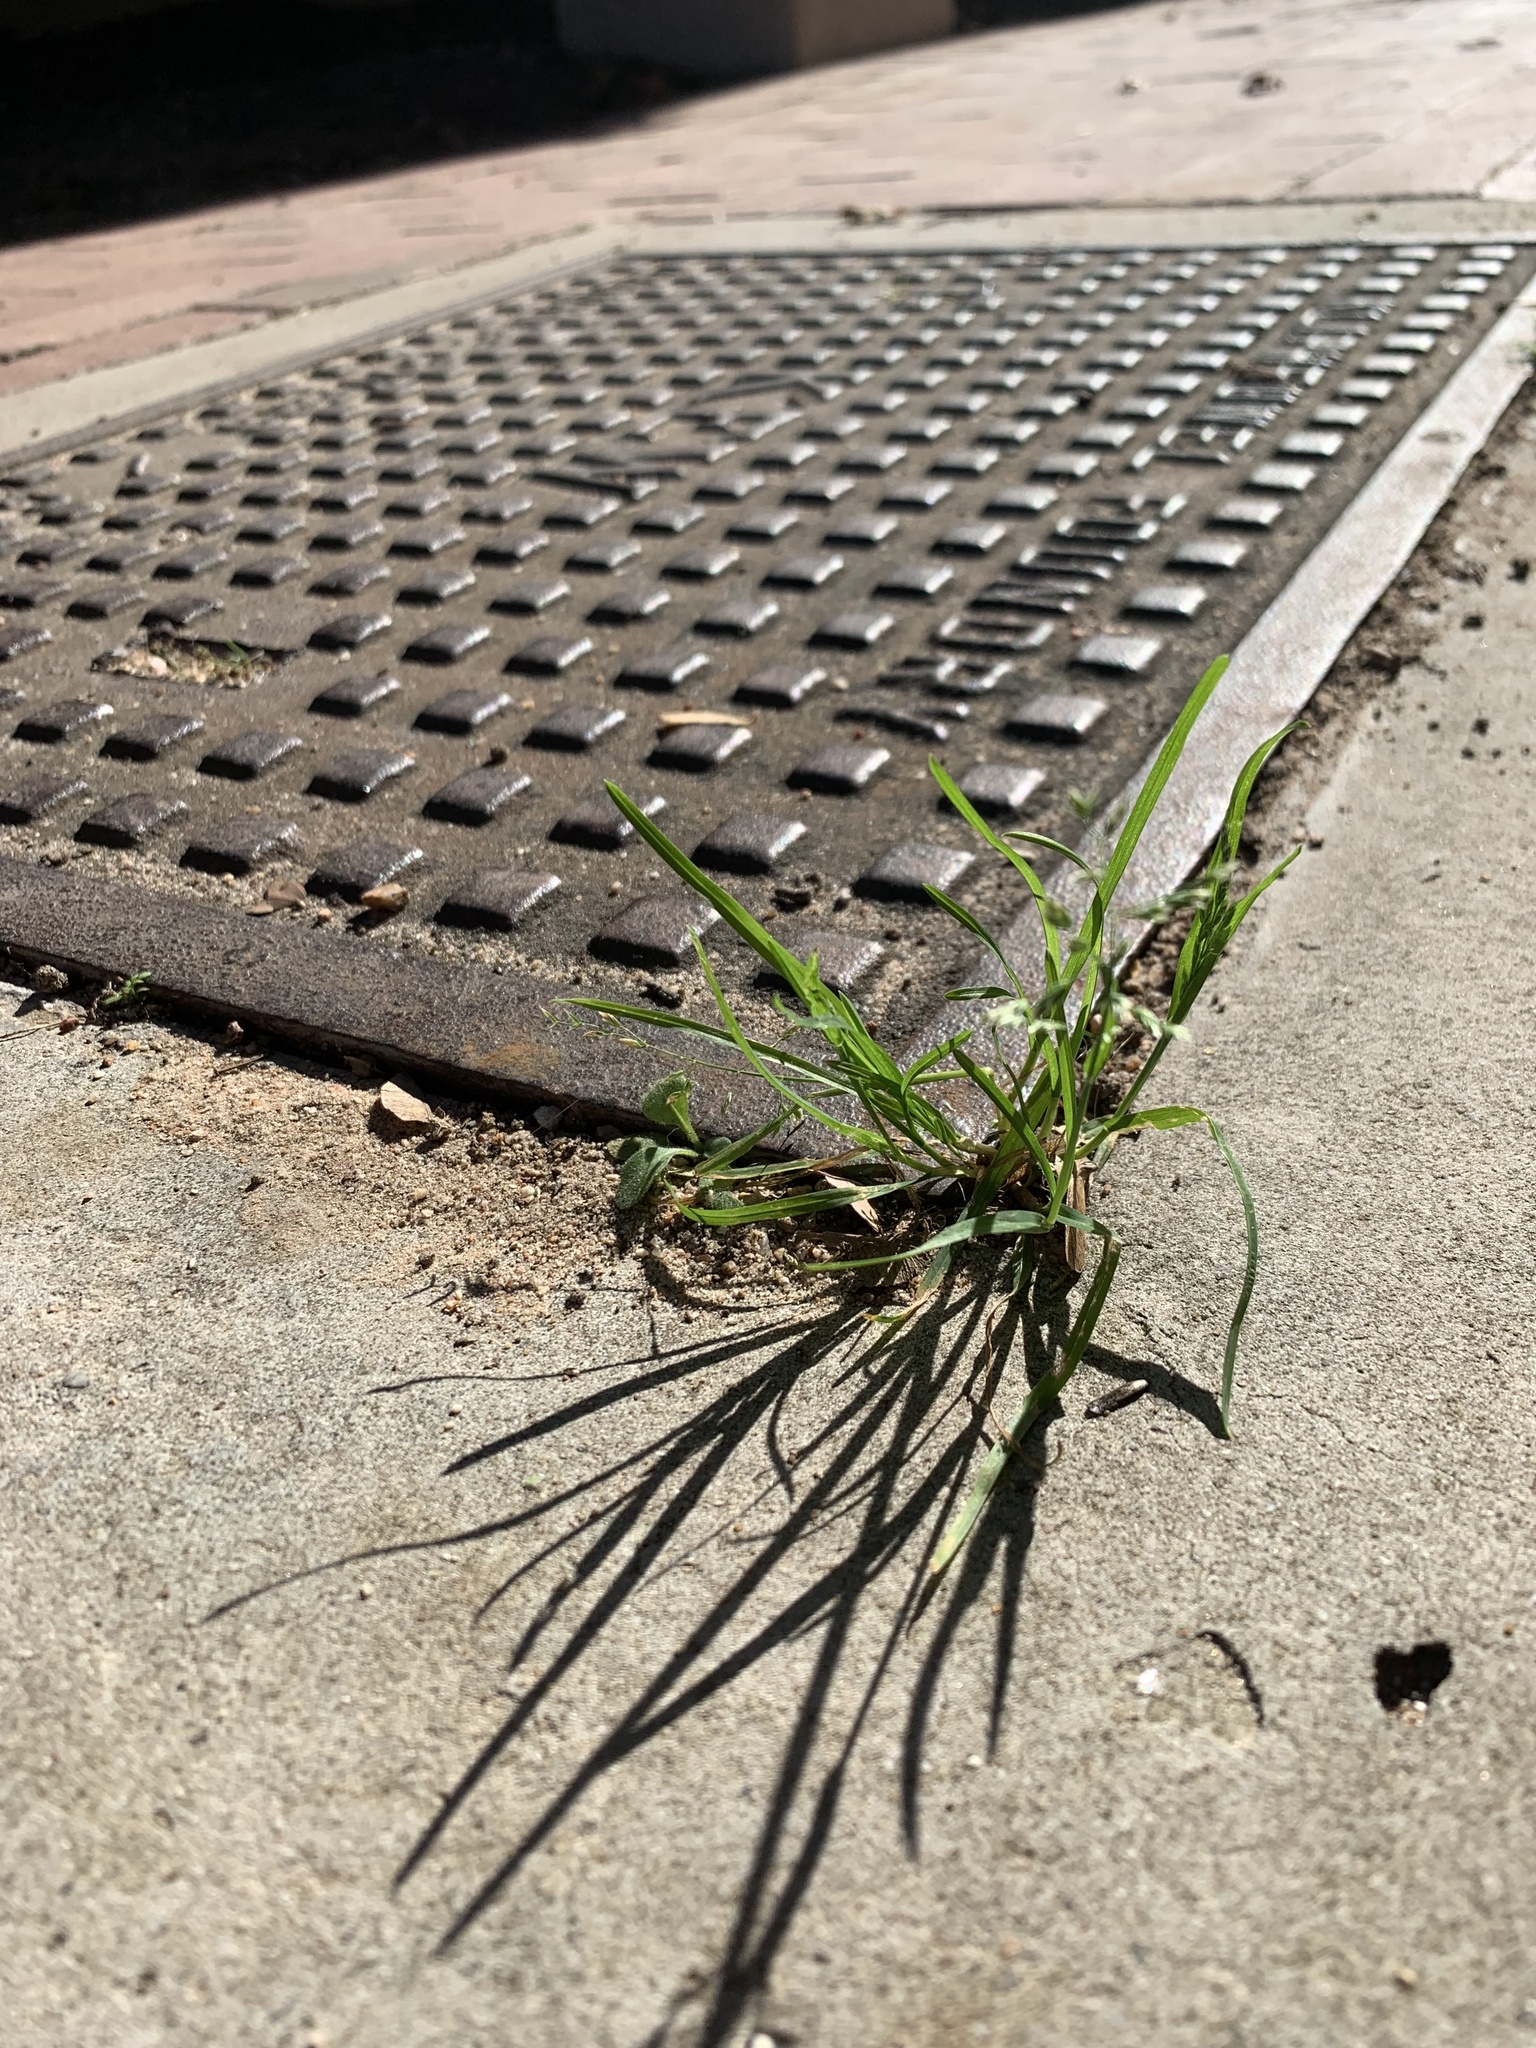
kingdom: Plantae
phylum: Tracheophyta
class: Liliopsida
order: Poales
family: Poaceae
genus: Poa
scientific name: Poa annua
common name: Annual bluegrass
